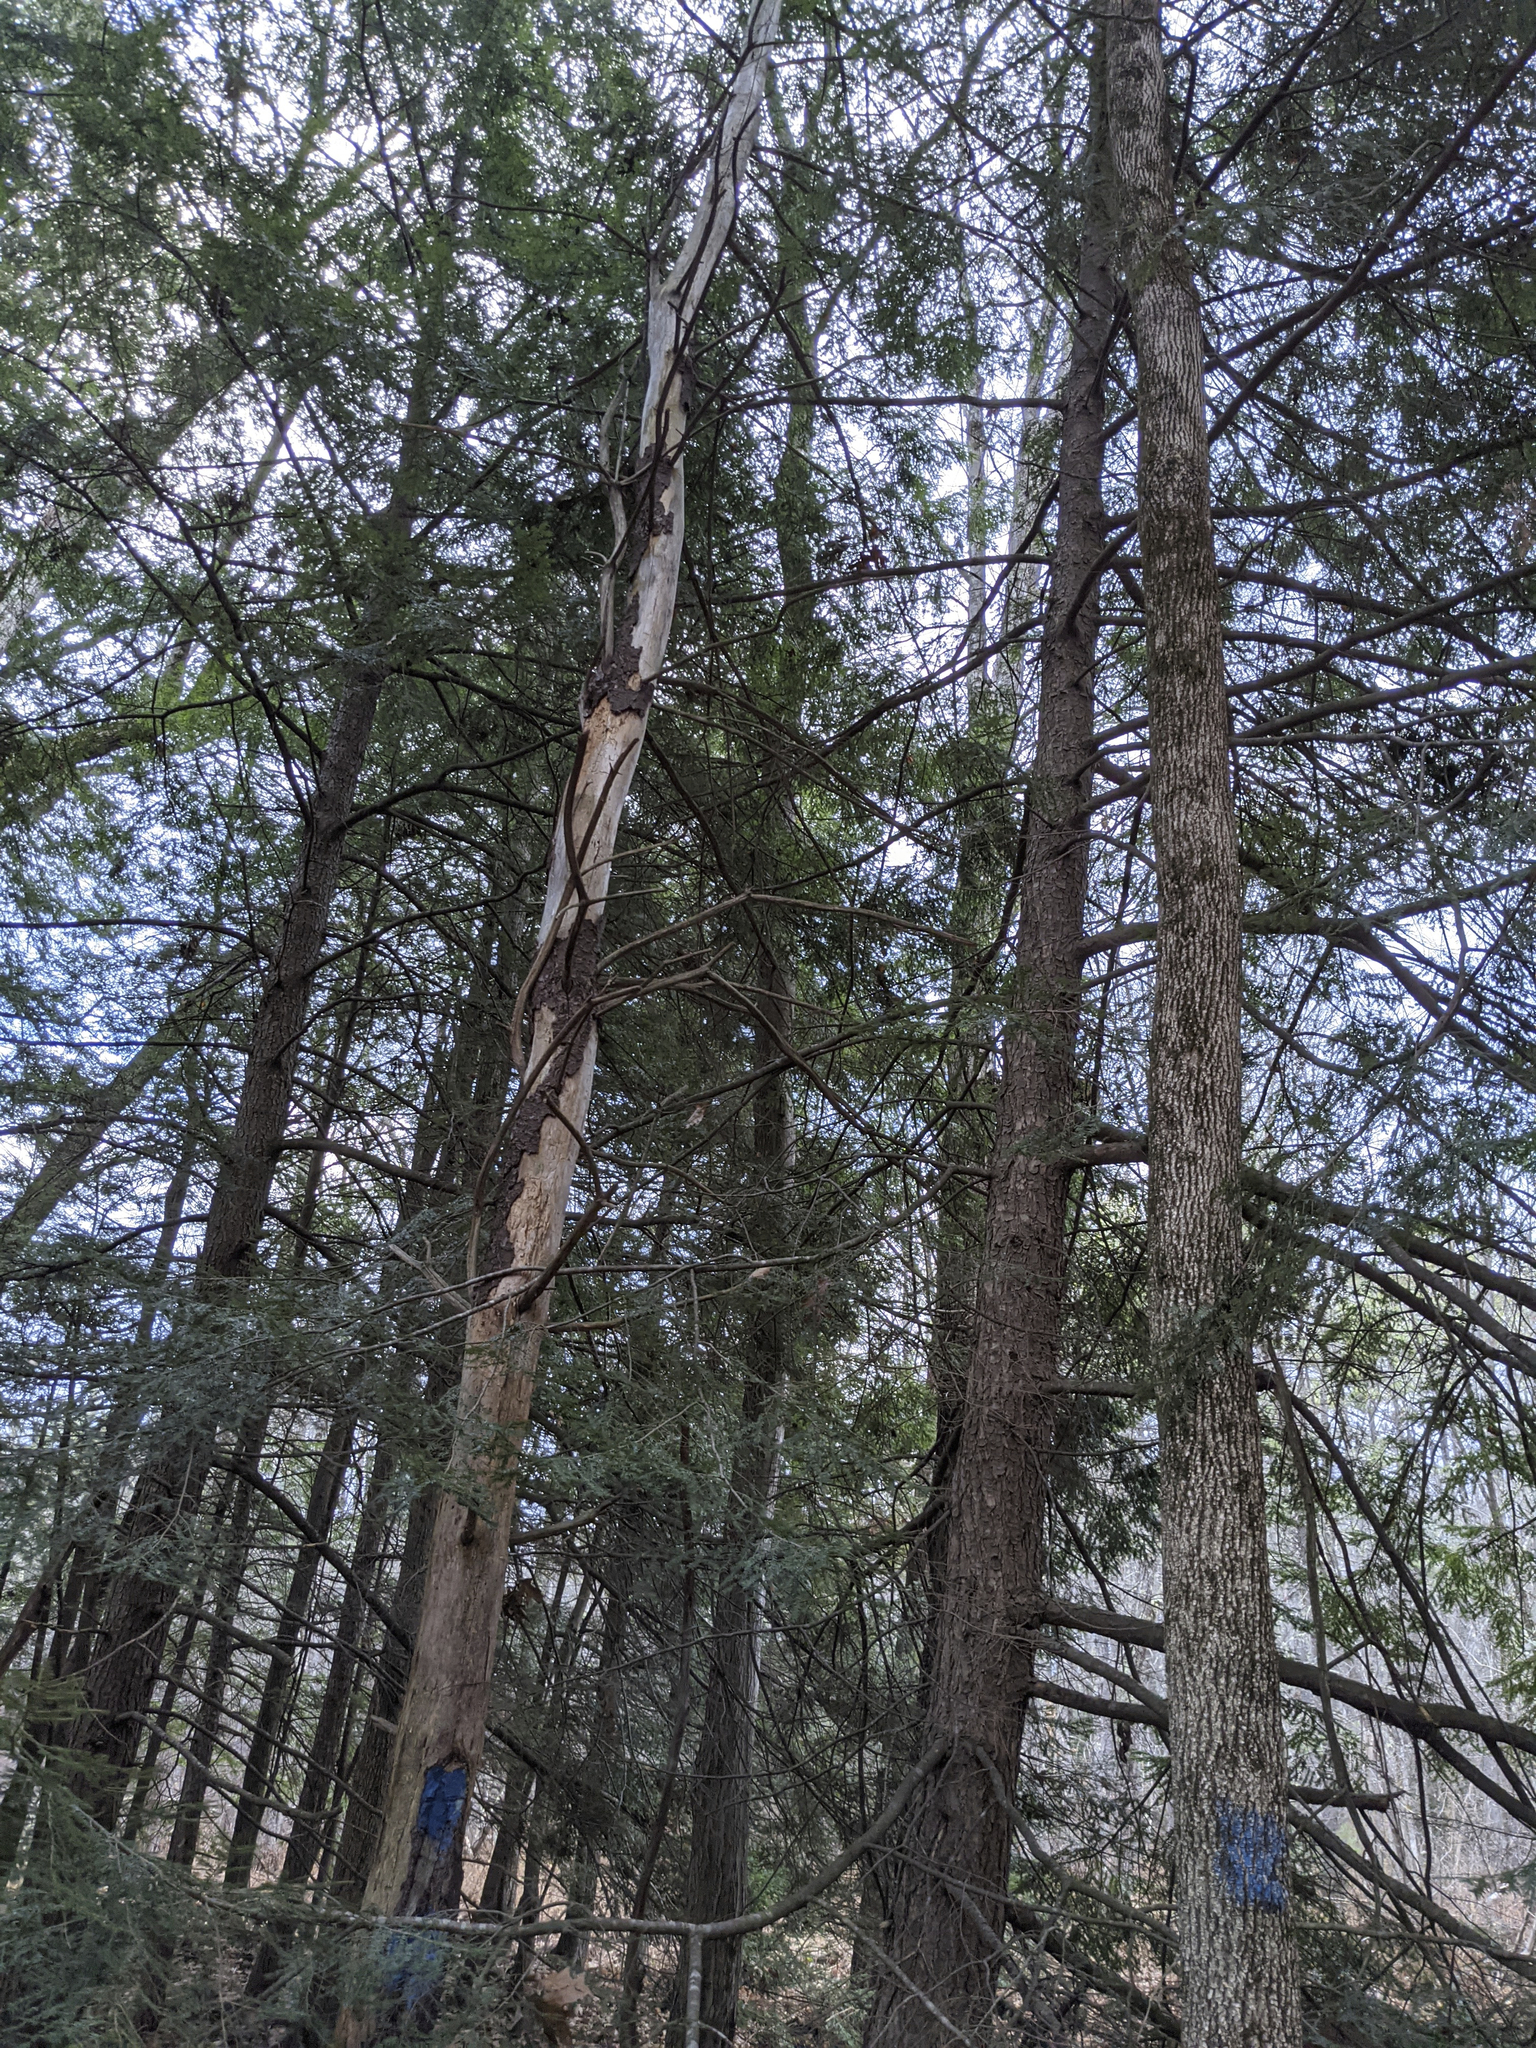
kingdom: Plantae
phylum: Tracheophyta
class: Pinopsida
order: Pinales
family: Pinaceae
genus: Tsuga
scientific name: Tsuga canadensis
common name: Eastern hemlock
